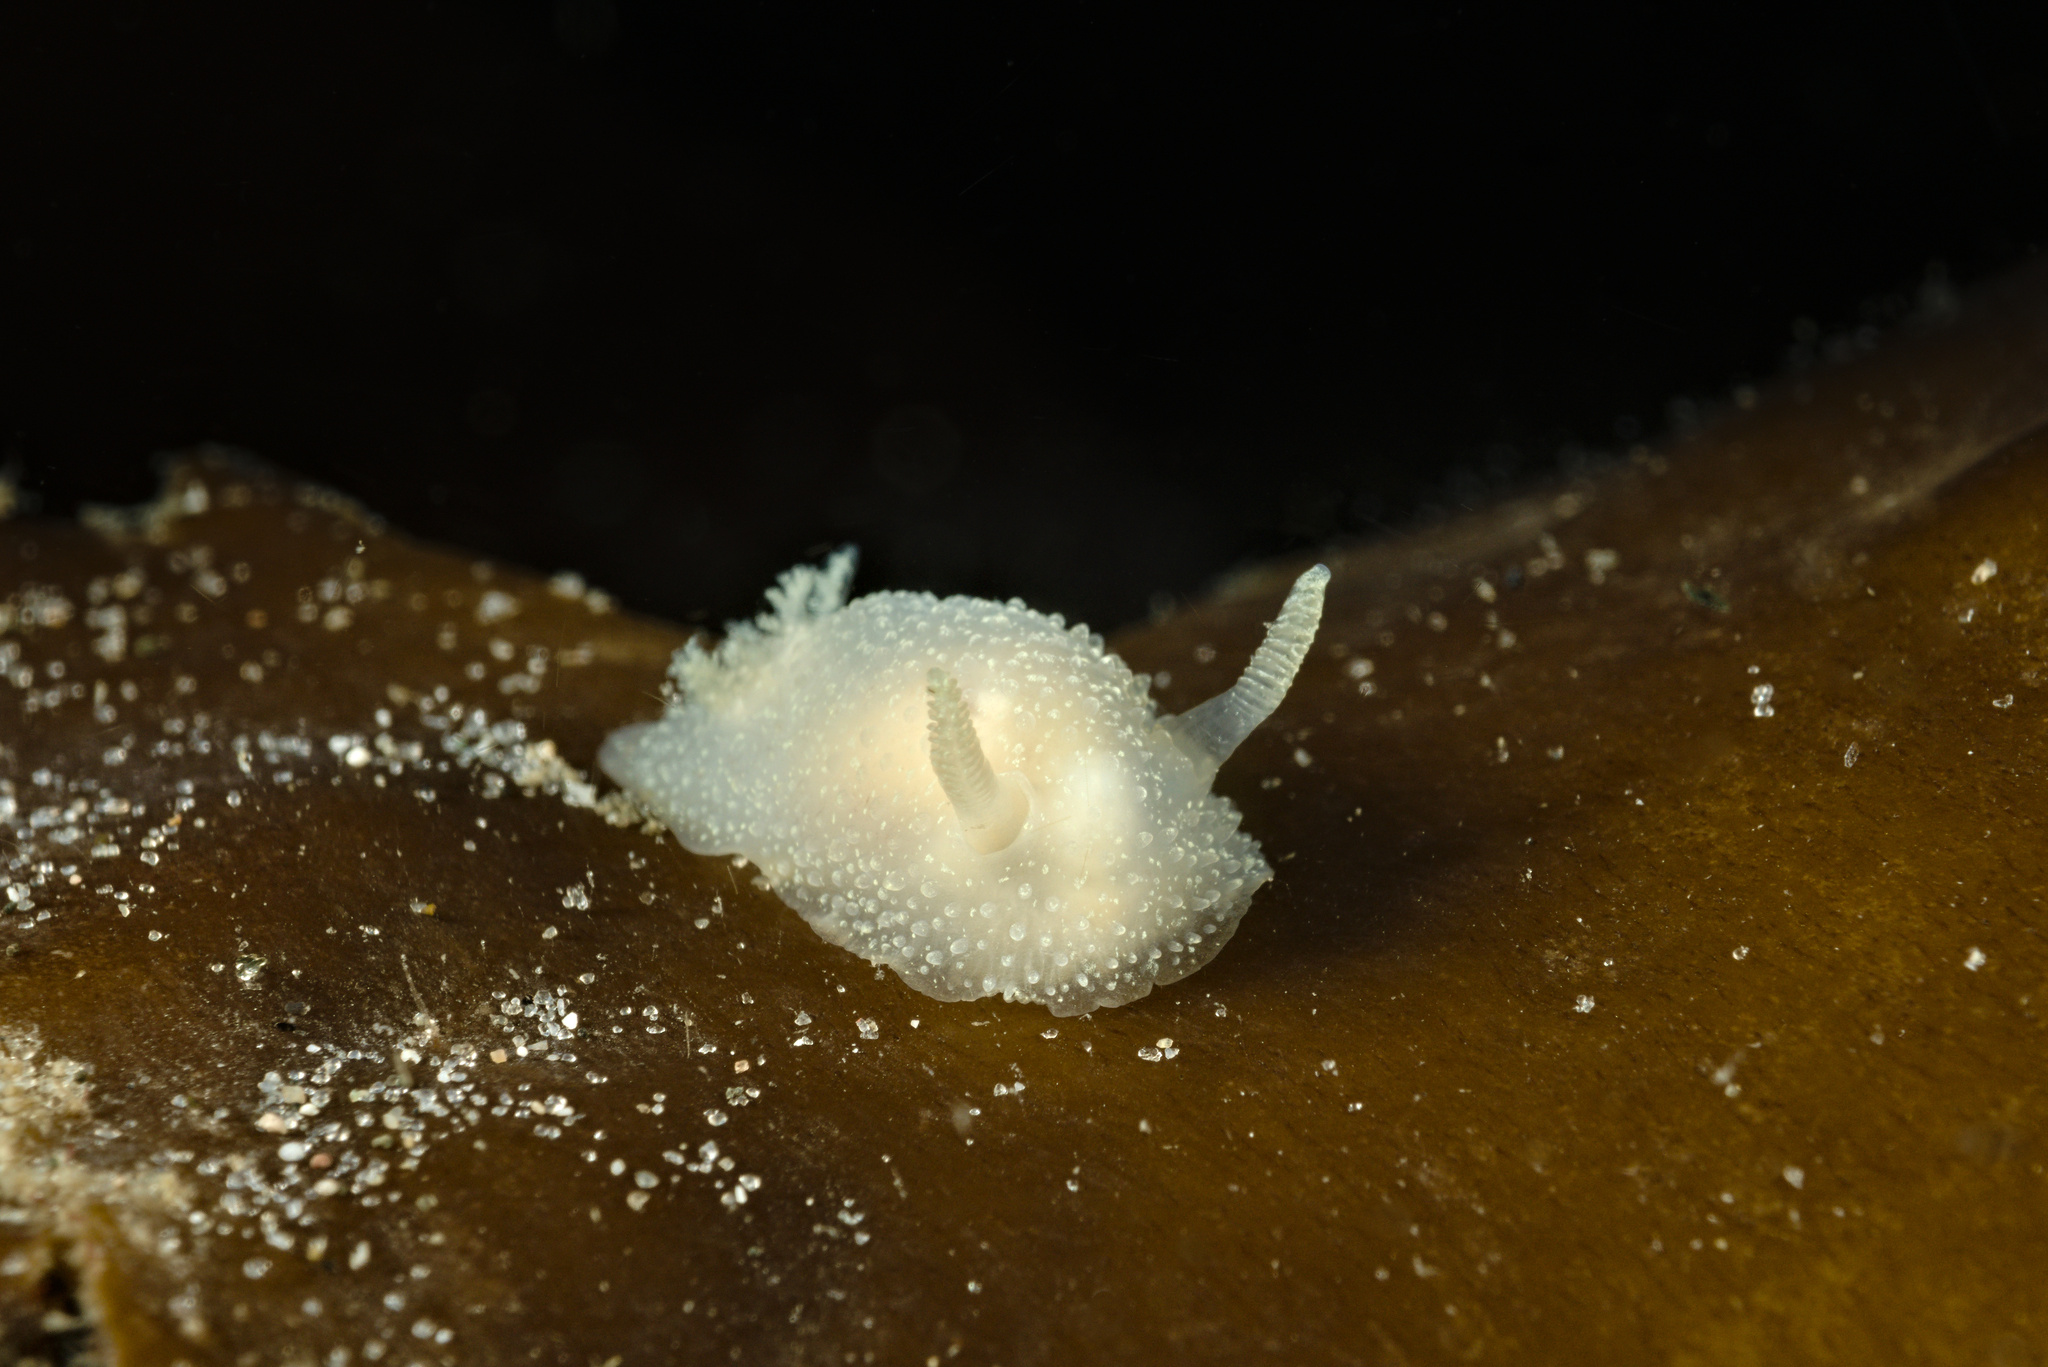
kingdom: Animalia
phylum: Mollusca
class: Gastropoda
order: Nudibranchia
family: Onchidorididae
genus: Acanthodoris
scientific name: Acanthodoris pilosa
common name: Hairy spiny doris
